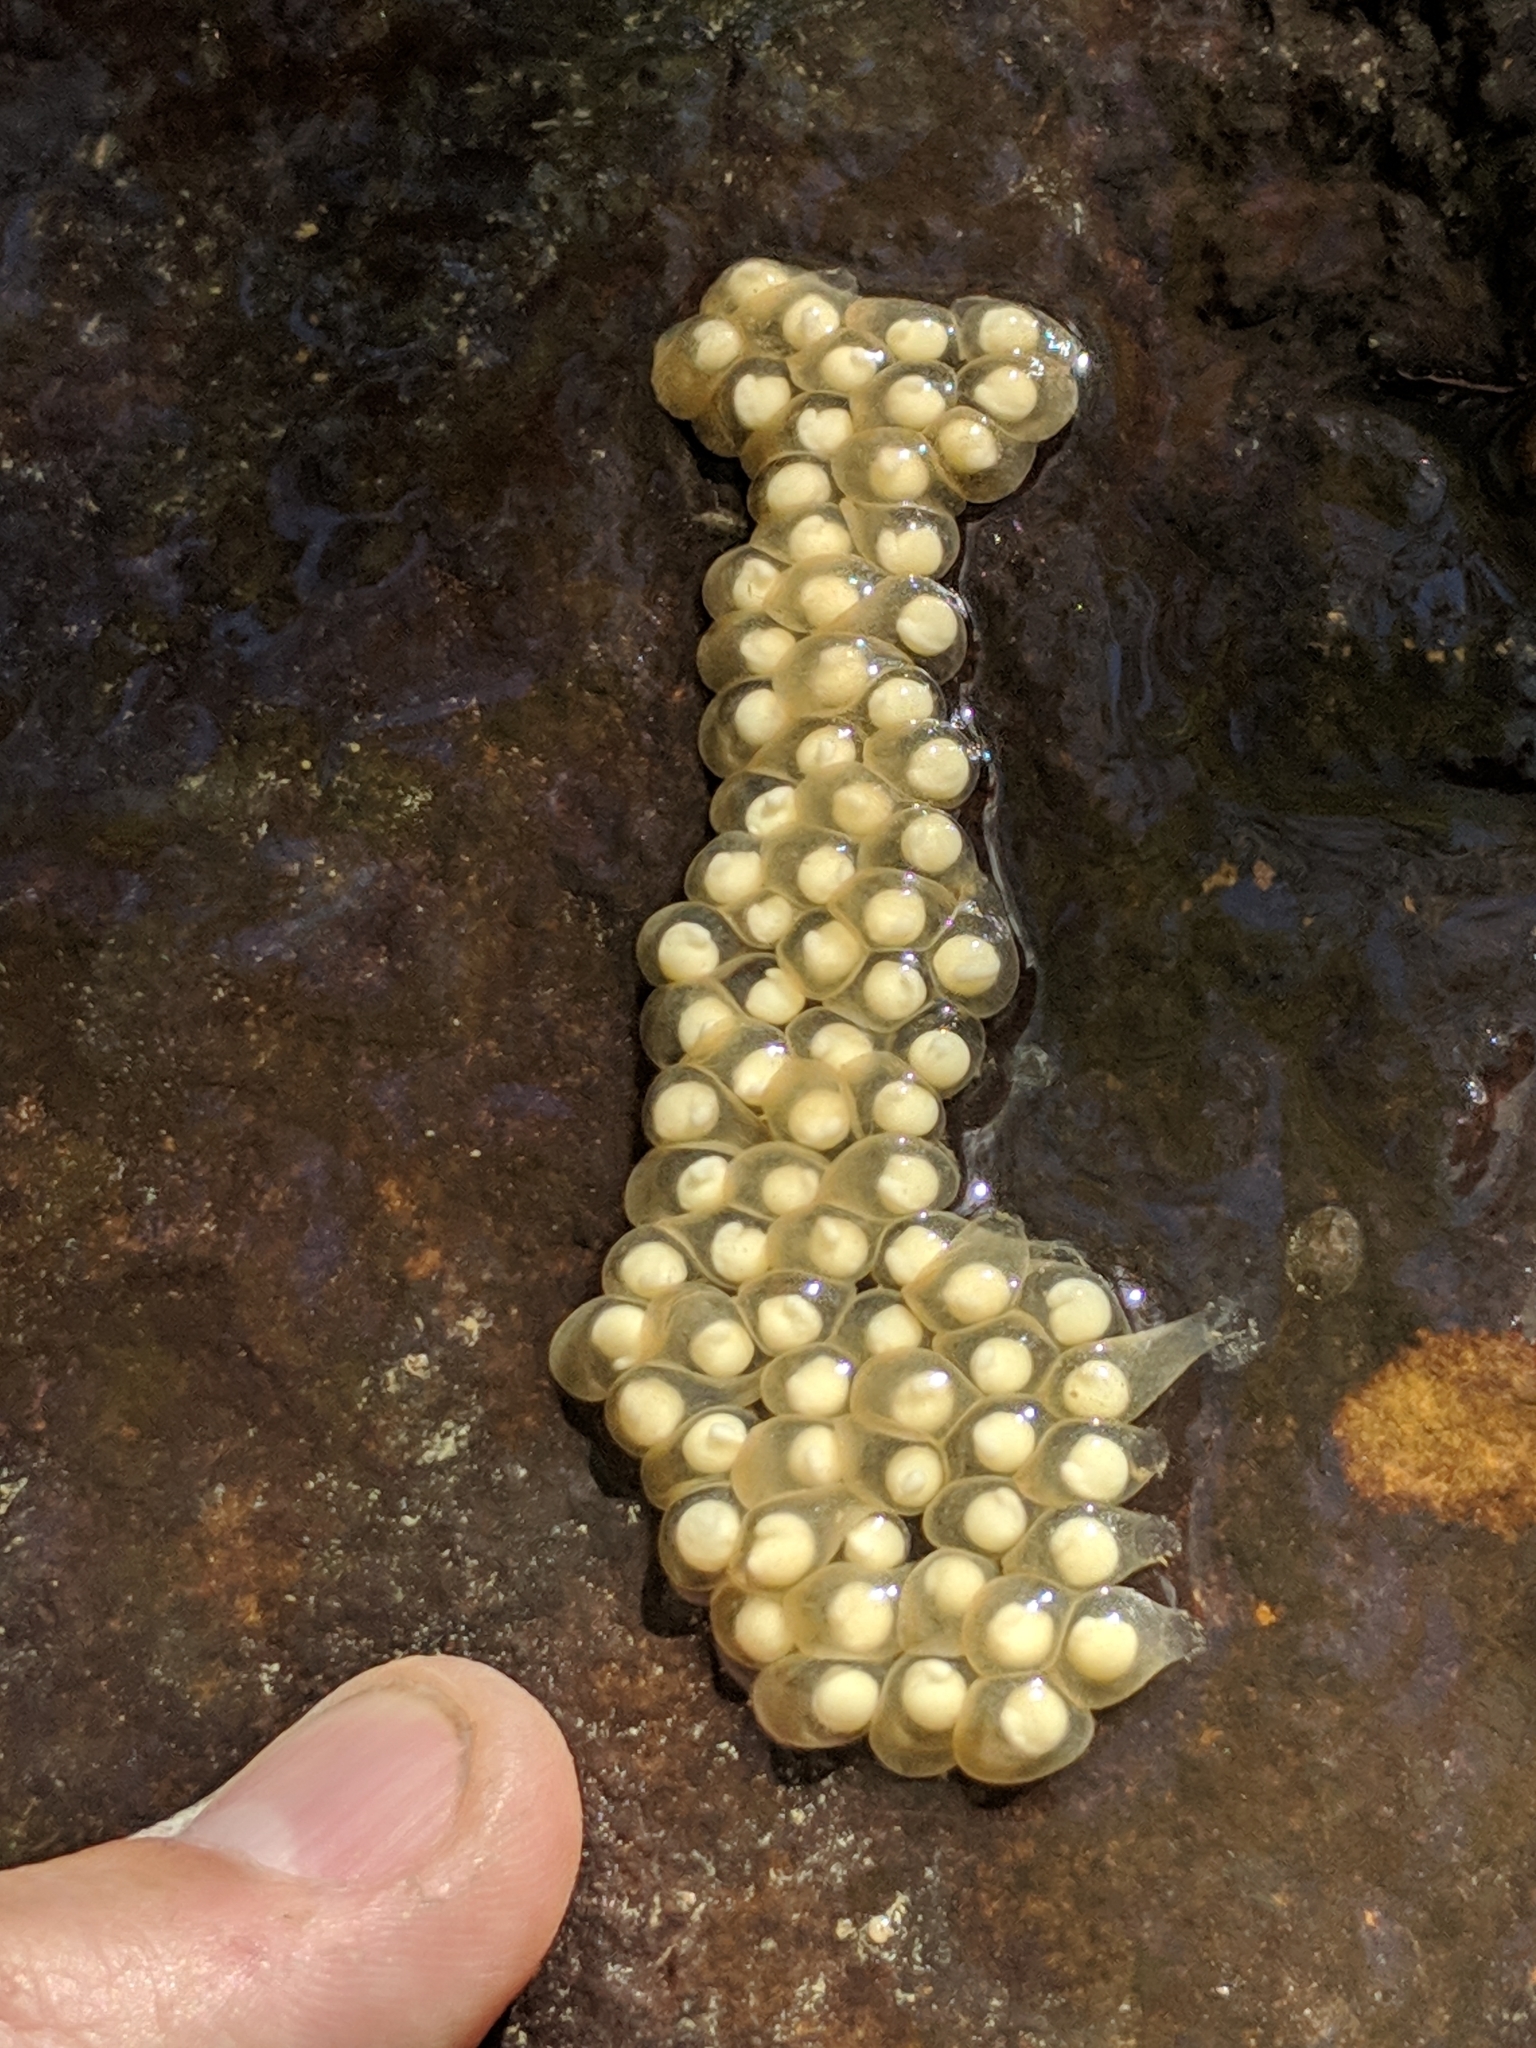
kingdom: Animalia
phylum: Chordata
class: Amphibia
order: Caudata
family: Plethodontidae
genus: Eurycea
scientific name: Eurycea cirrigera
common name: Southern two-lined salamander
